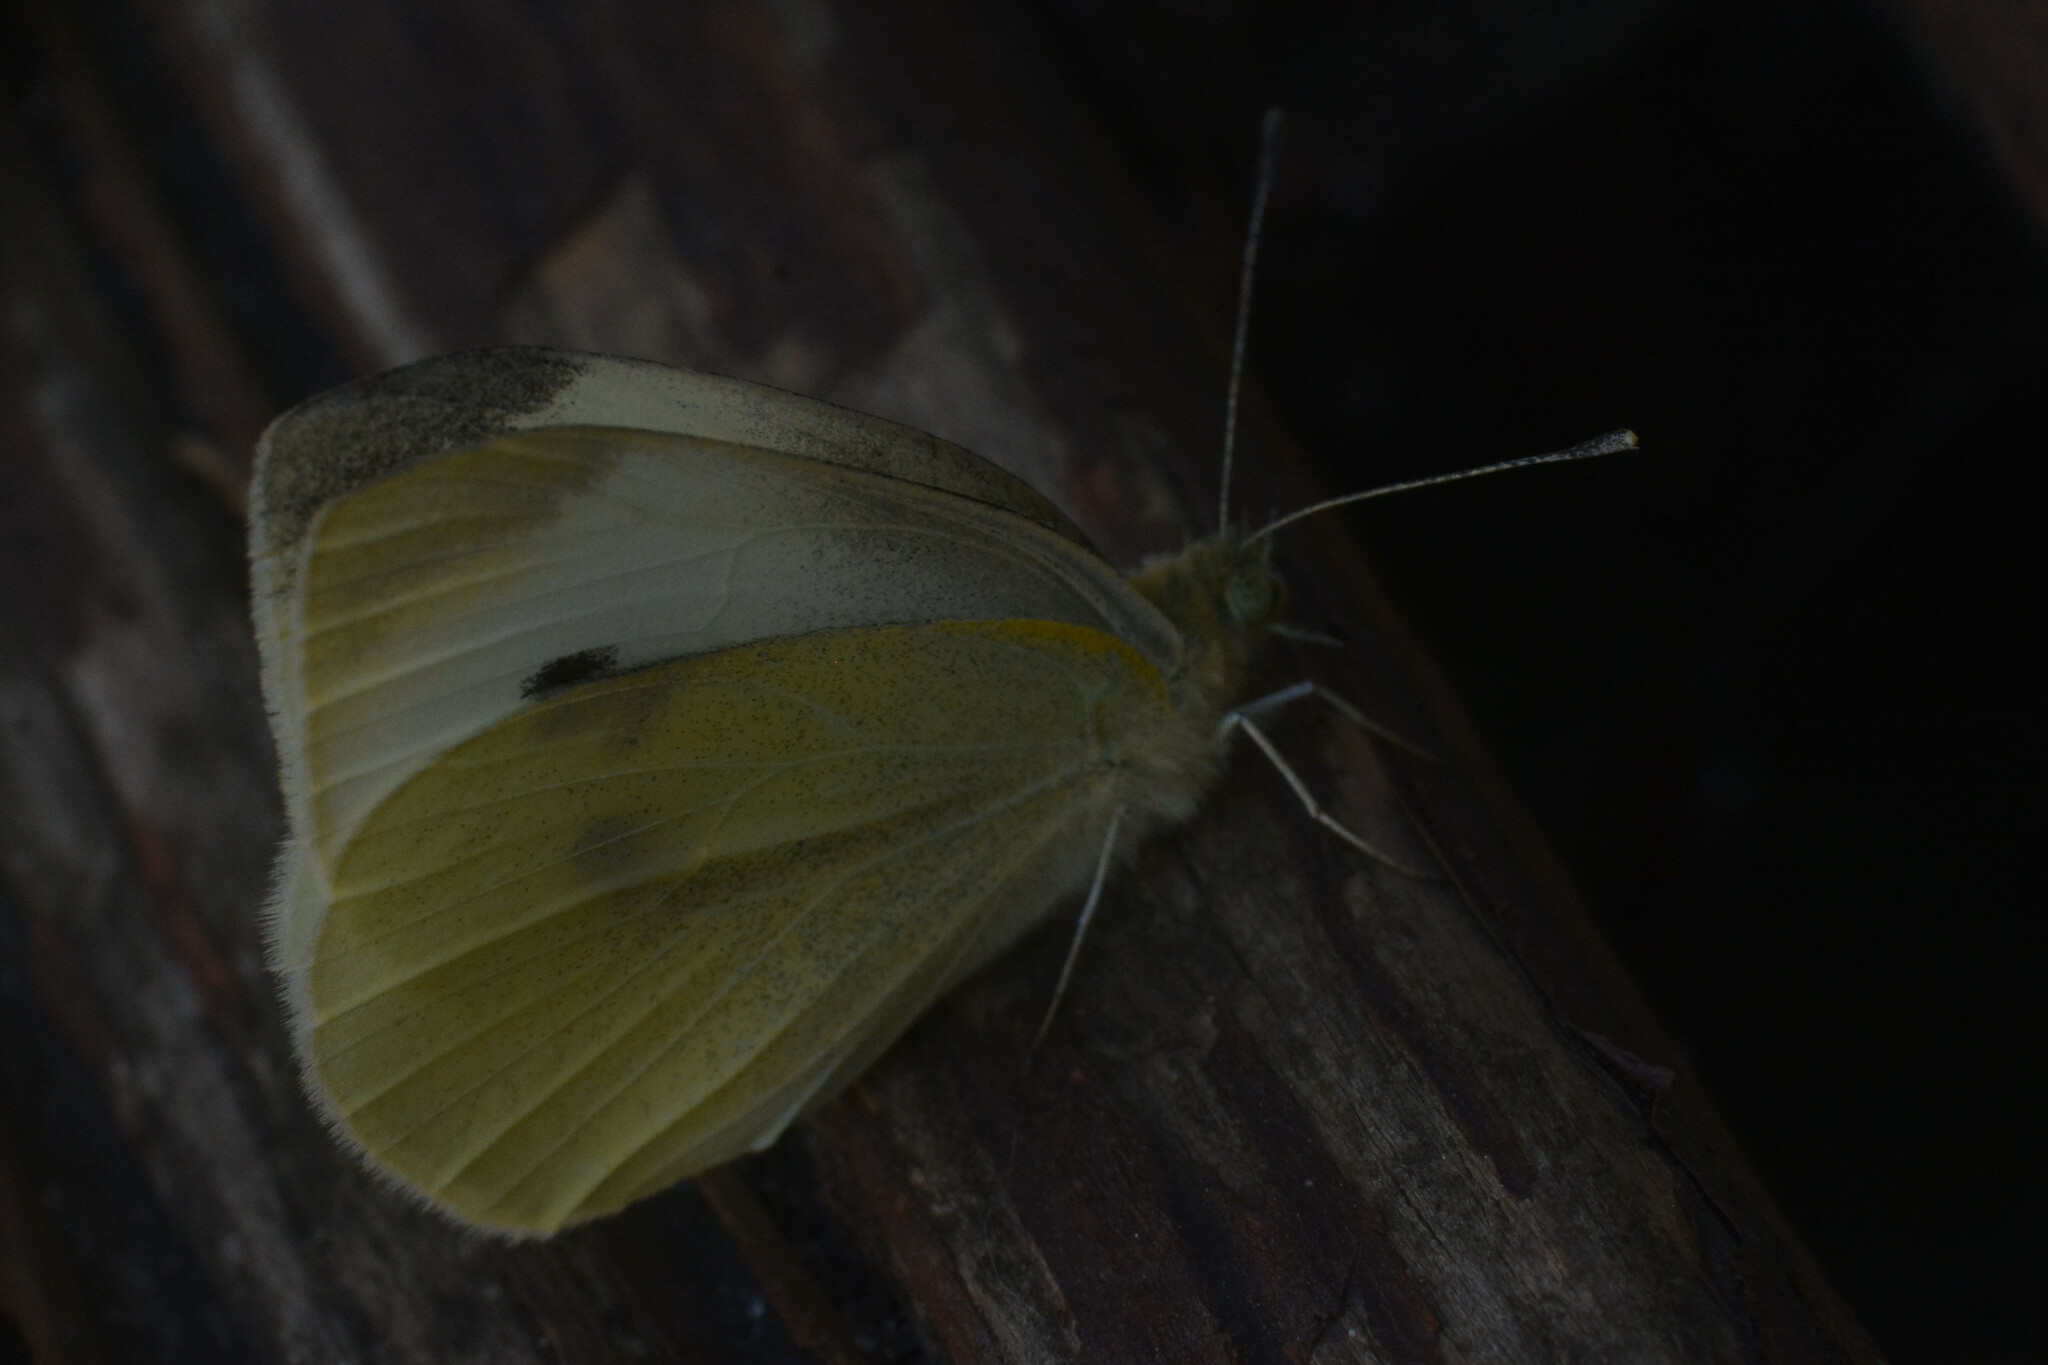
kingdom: Animalia
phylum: Arthropoda
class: Insecta
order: Lepidoptera
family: Pieridae
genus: Pieris
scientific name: Pieris rapae
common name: Small white
